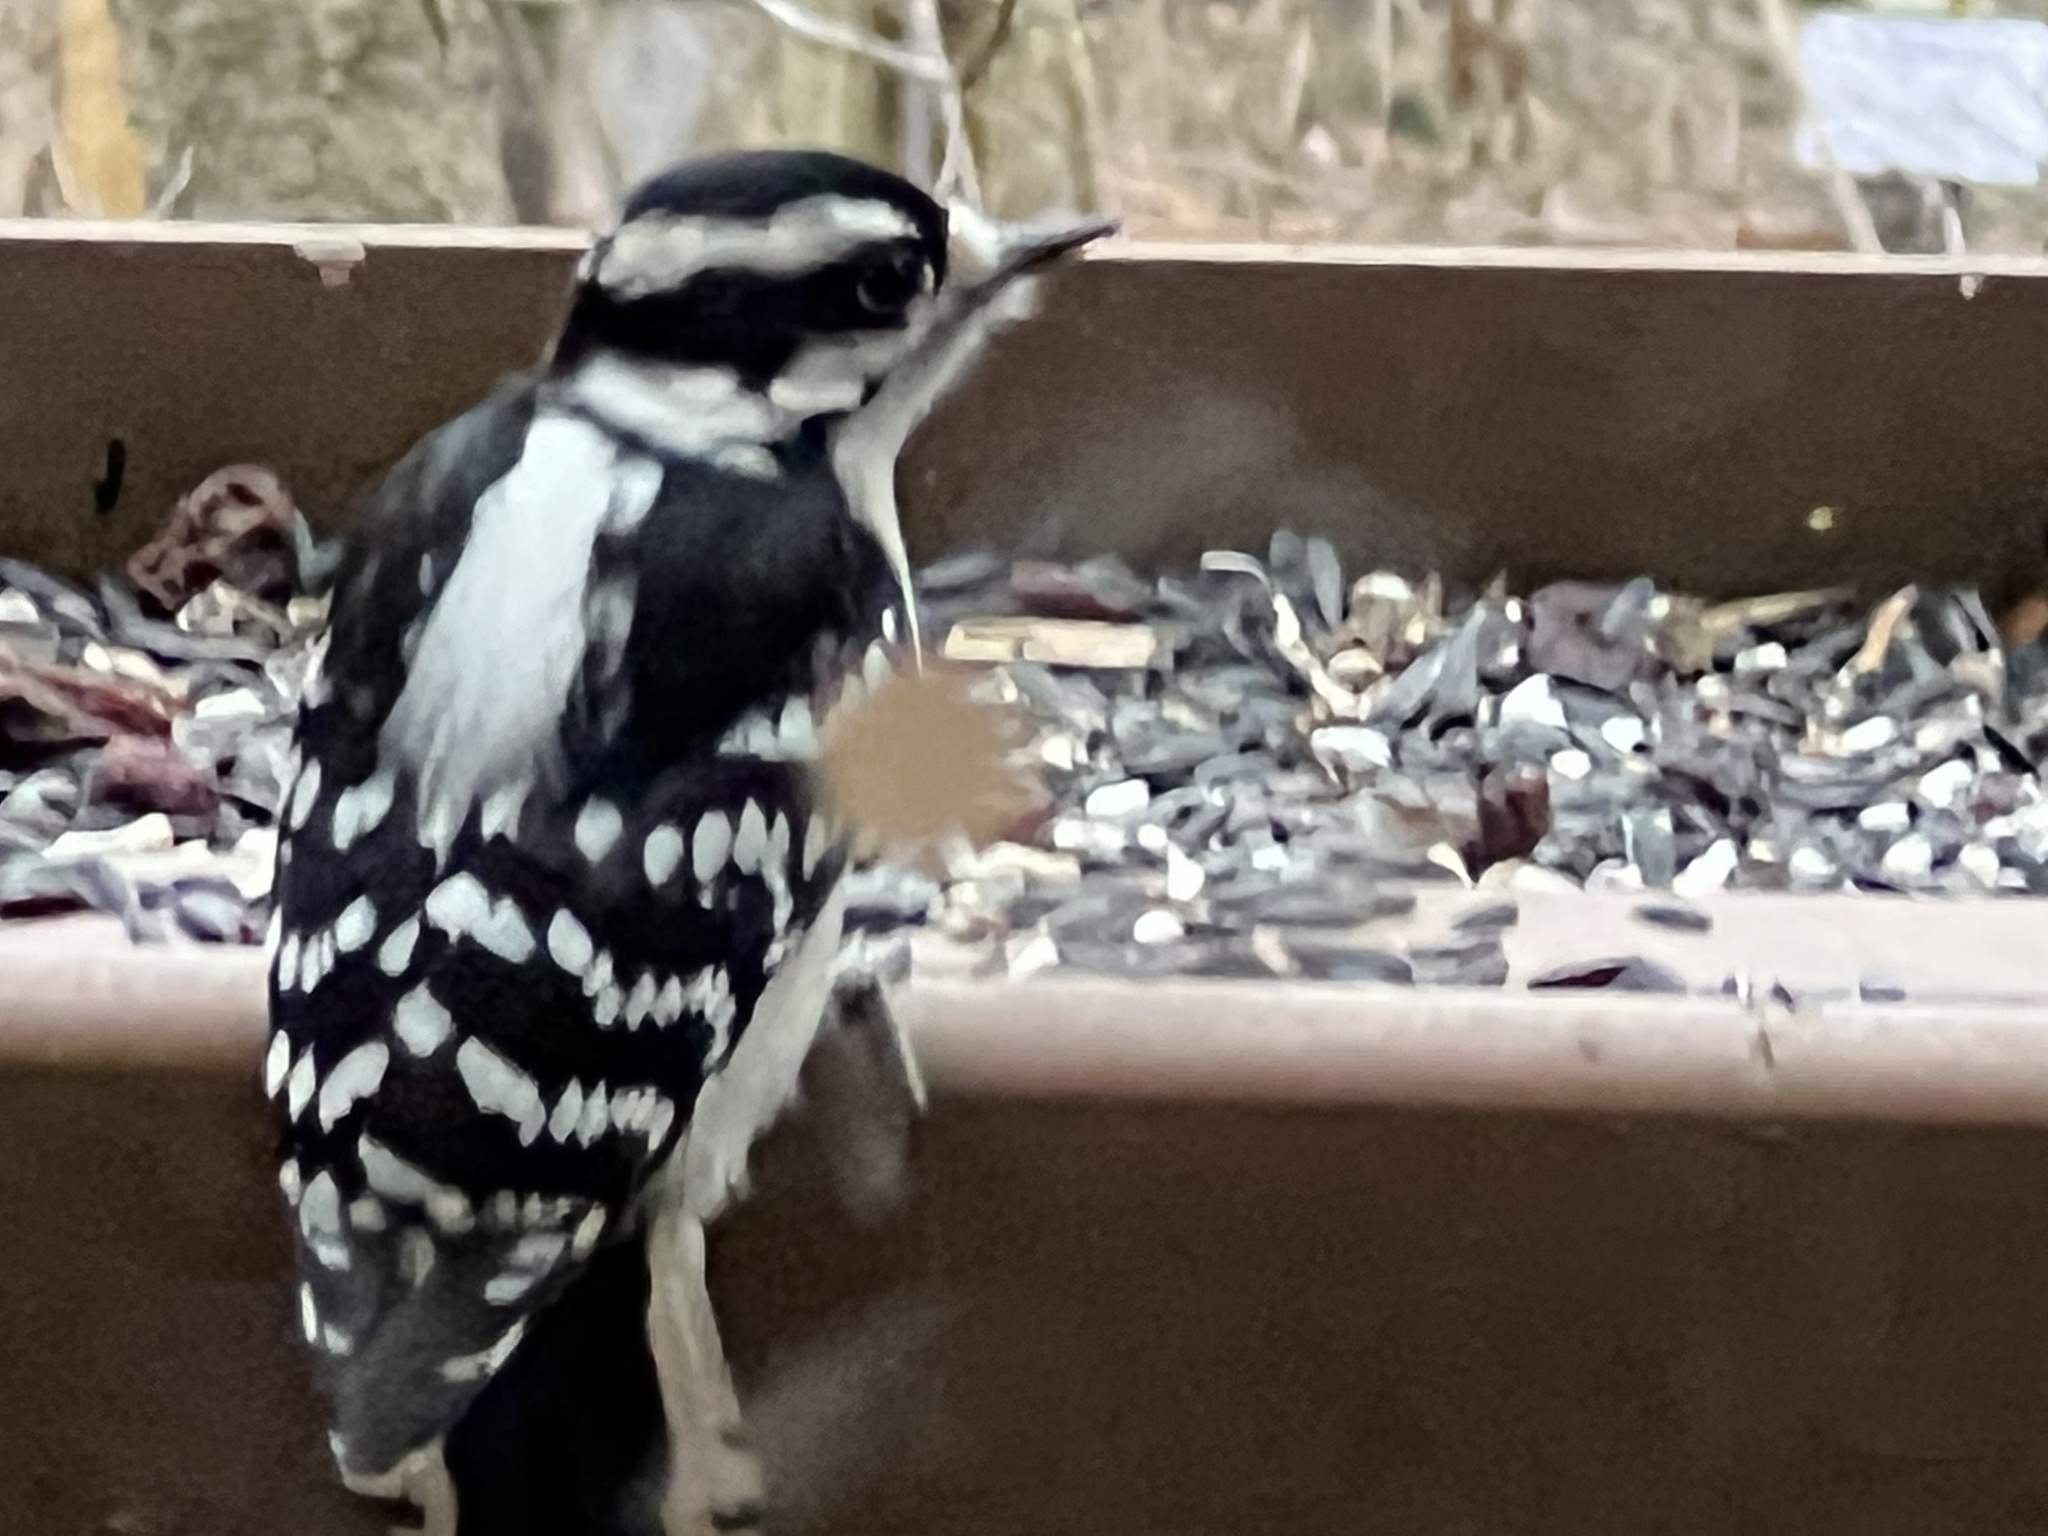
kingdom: Animalia
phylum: Chordata
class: Aves
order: Piciformes
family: Picidae
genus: Dryobates
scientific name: Dryobates pubescens
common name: Downy woodpecker
